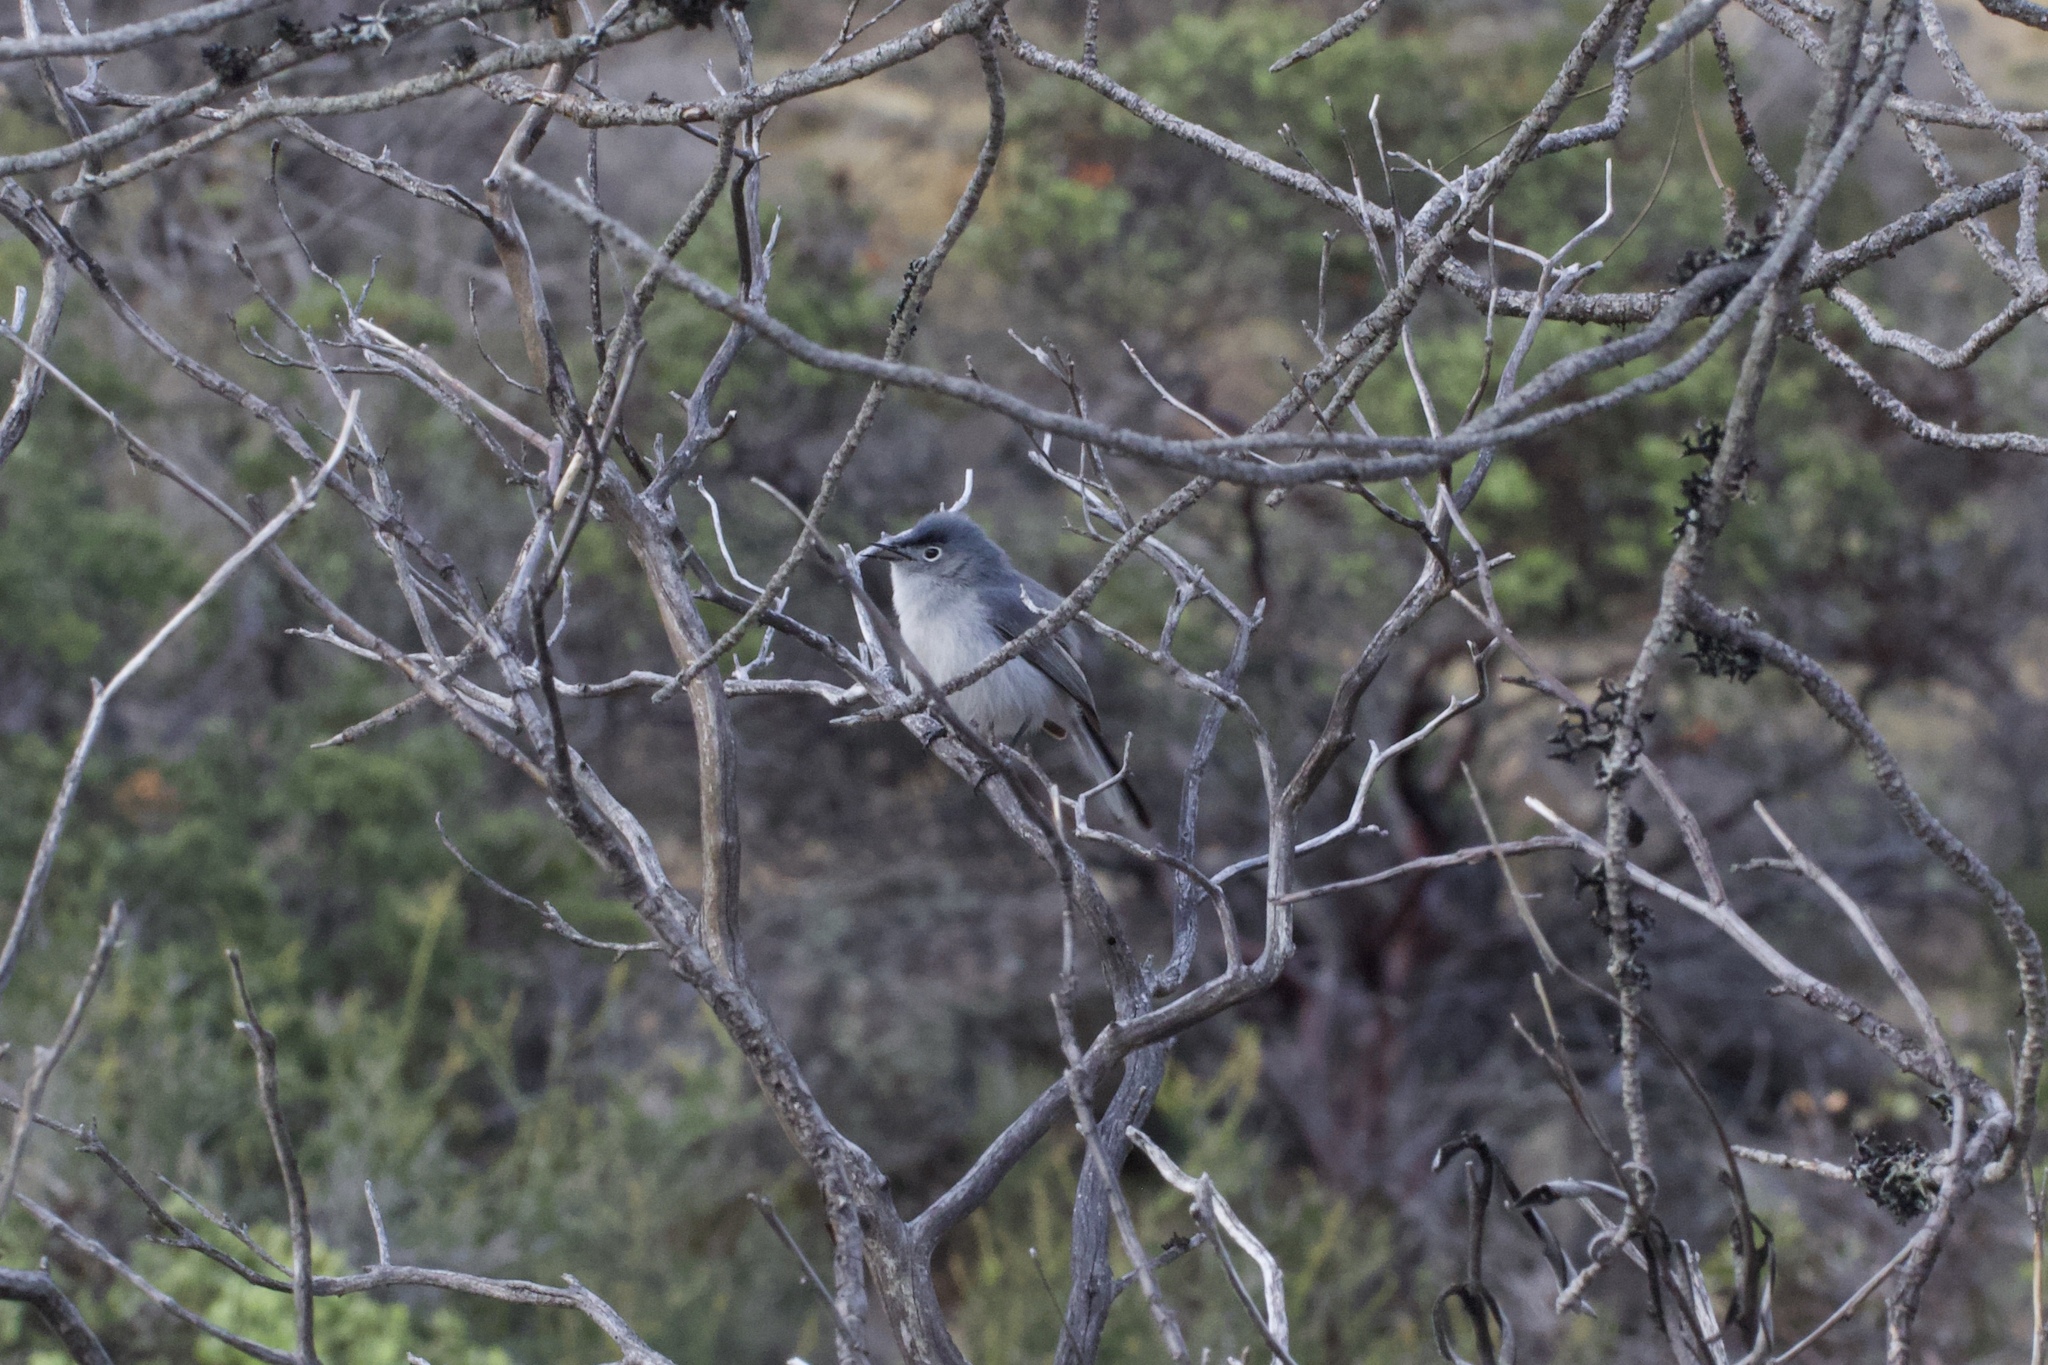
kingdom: Animalia
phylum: Chordata
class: Aves
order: Passeriformes
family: Polioptilidae
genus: Polioptila
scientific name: Polioptila caerulea
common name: Blue-gray gnatcatcher
